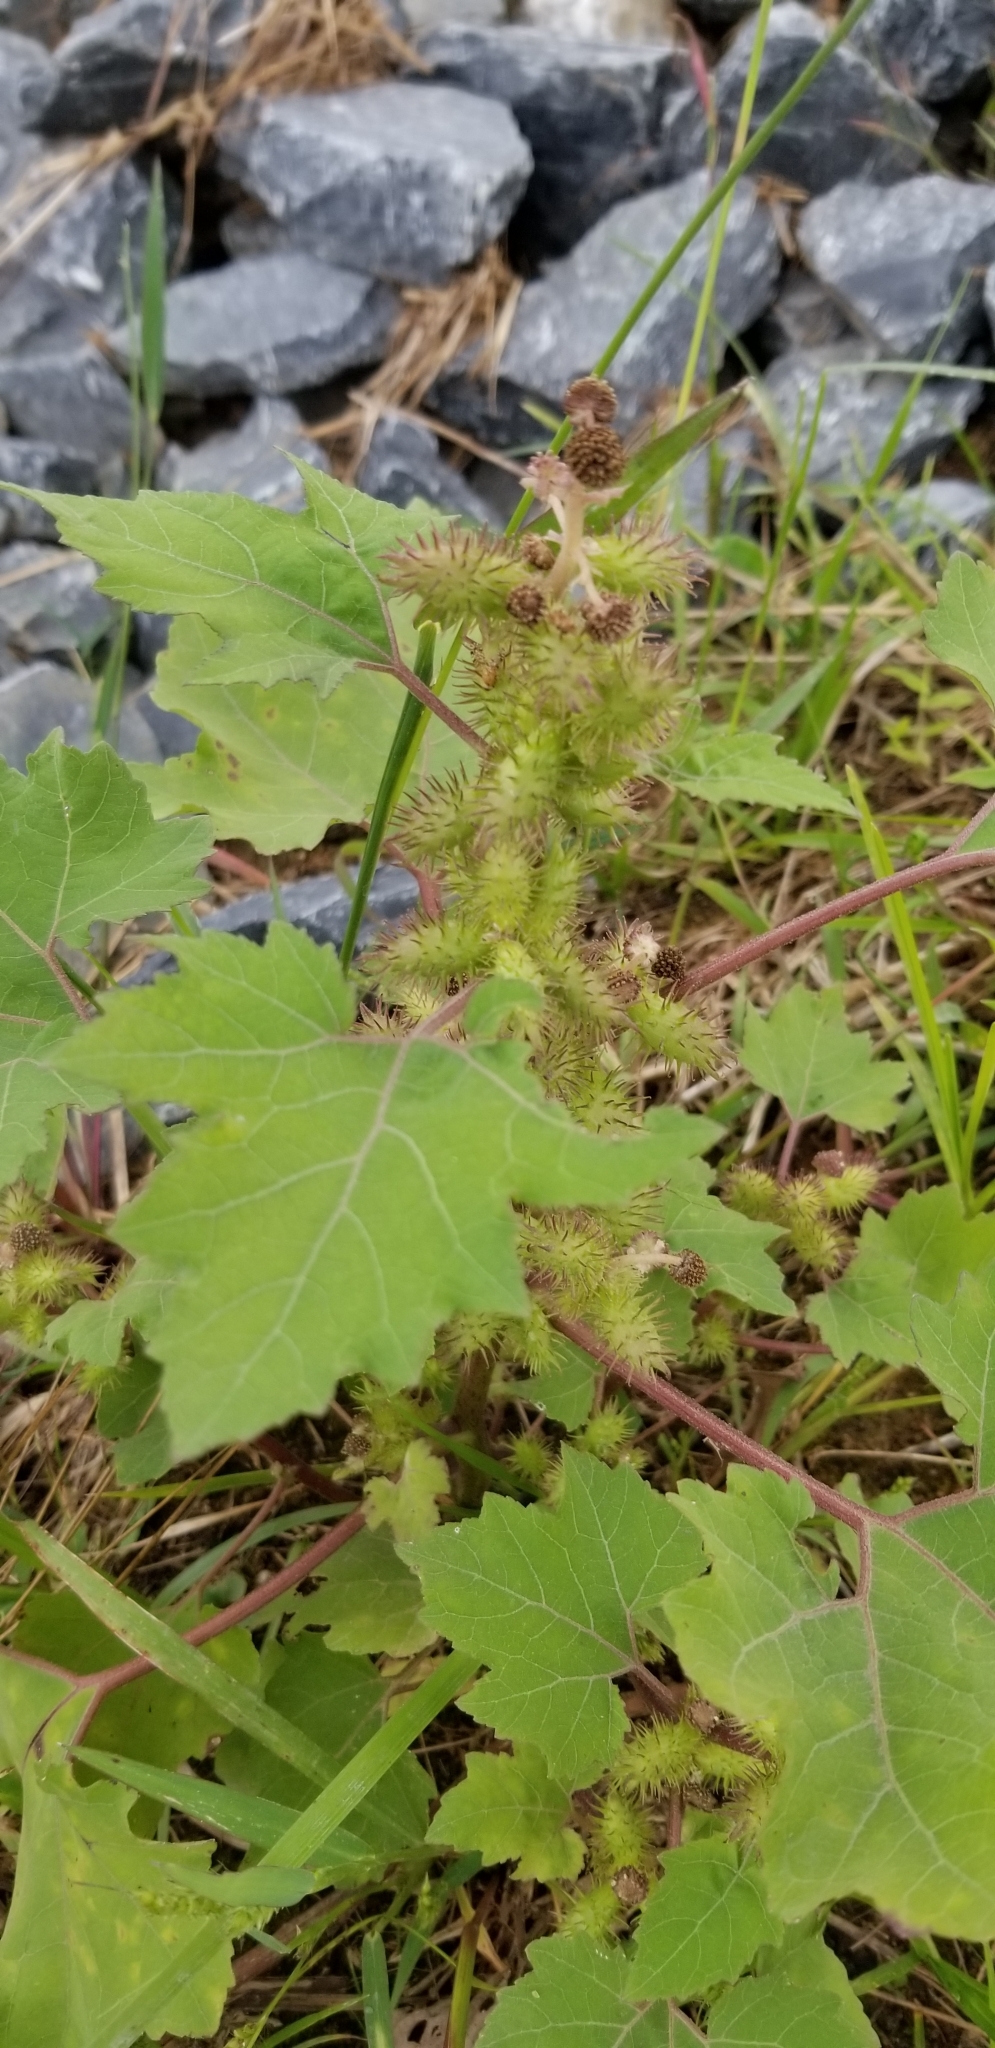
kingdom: Plantae
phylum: Tracheophyta
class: Magnoliopsida
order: Asterales
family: Asteraceae
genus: Xanthium
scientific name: Xanthium strumarium
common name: Rough cocklebur
